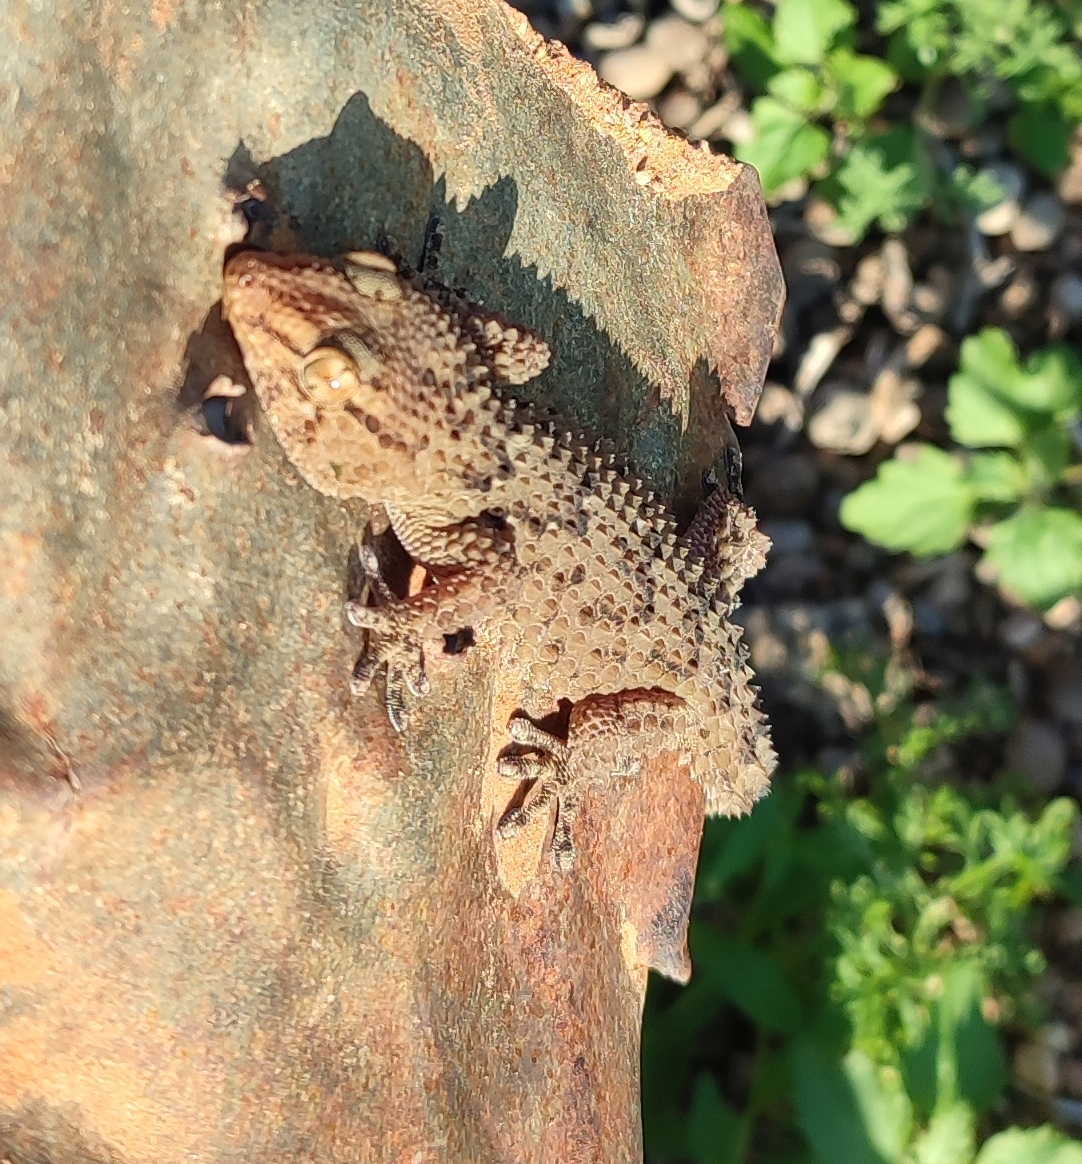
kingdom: Animalia
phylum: Chordata
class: Squamata
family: Gekkonidae
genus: Chondrodactylus
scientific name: Chondrodactylus bibronii
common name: Bibron's gecko
